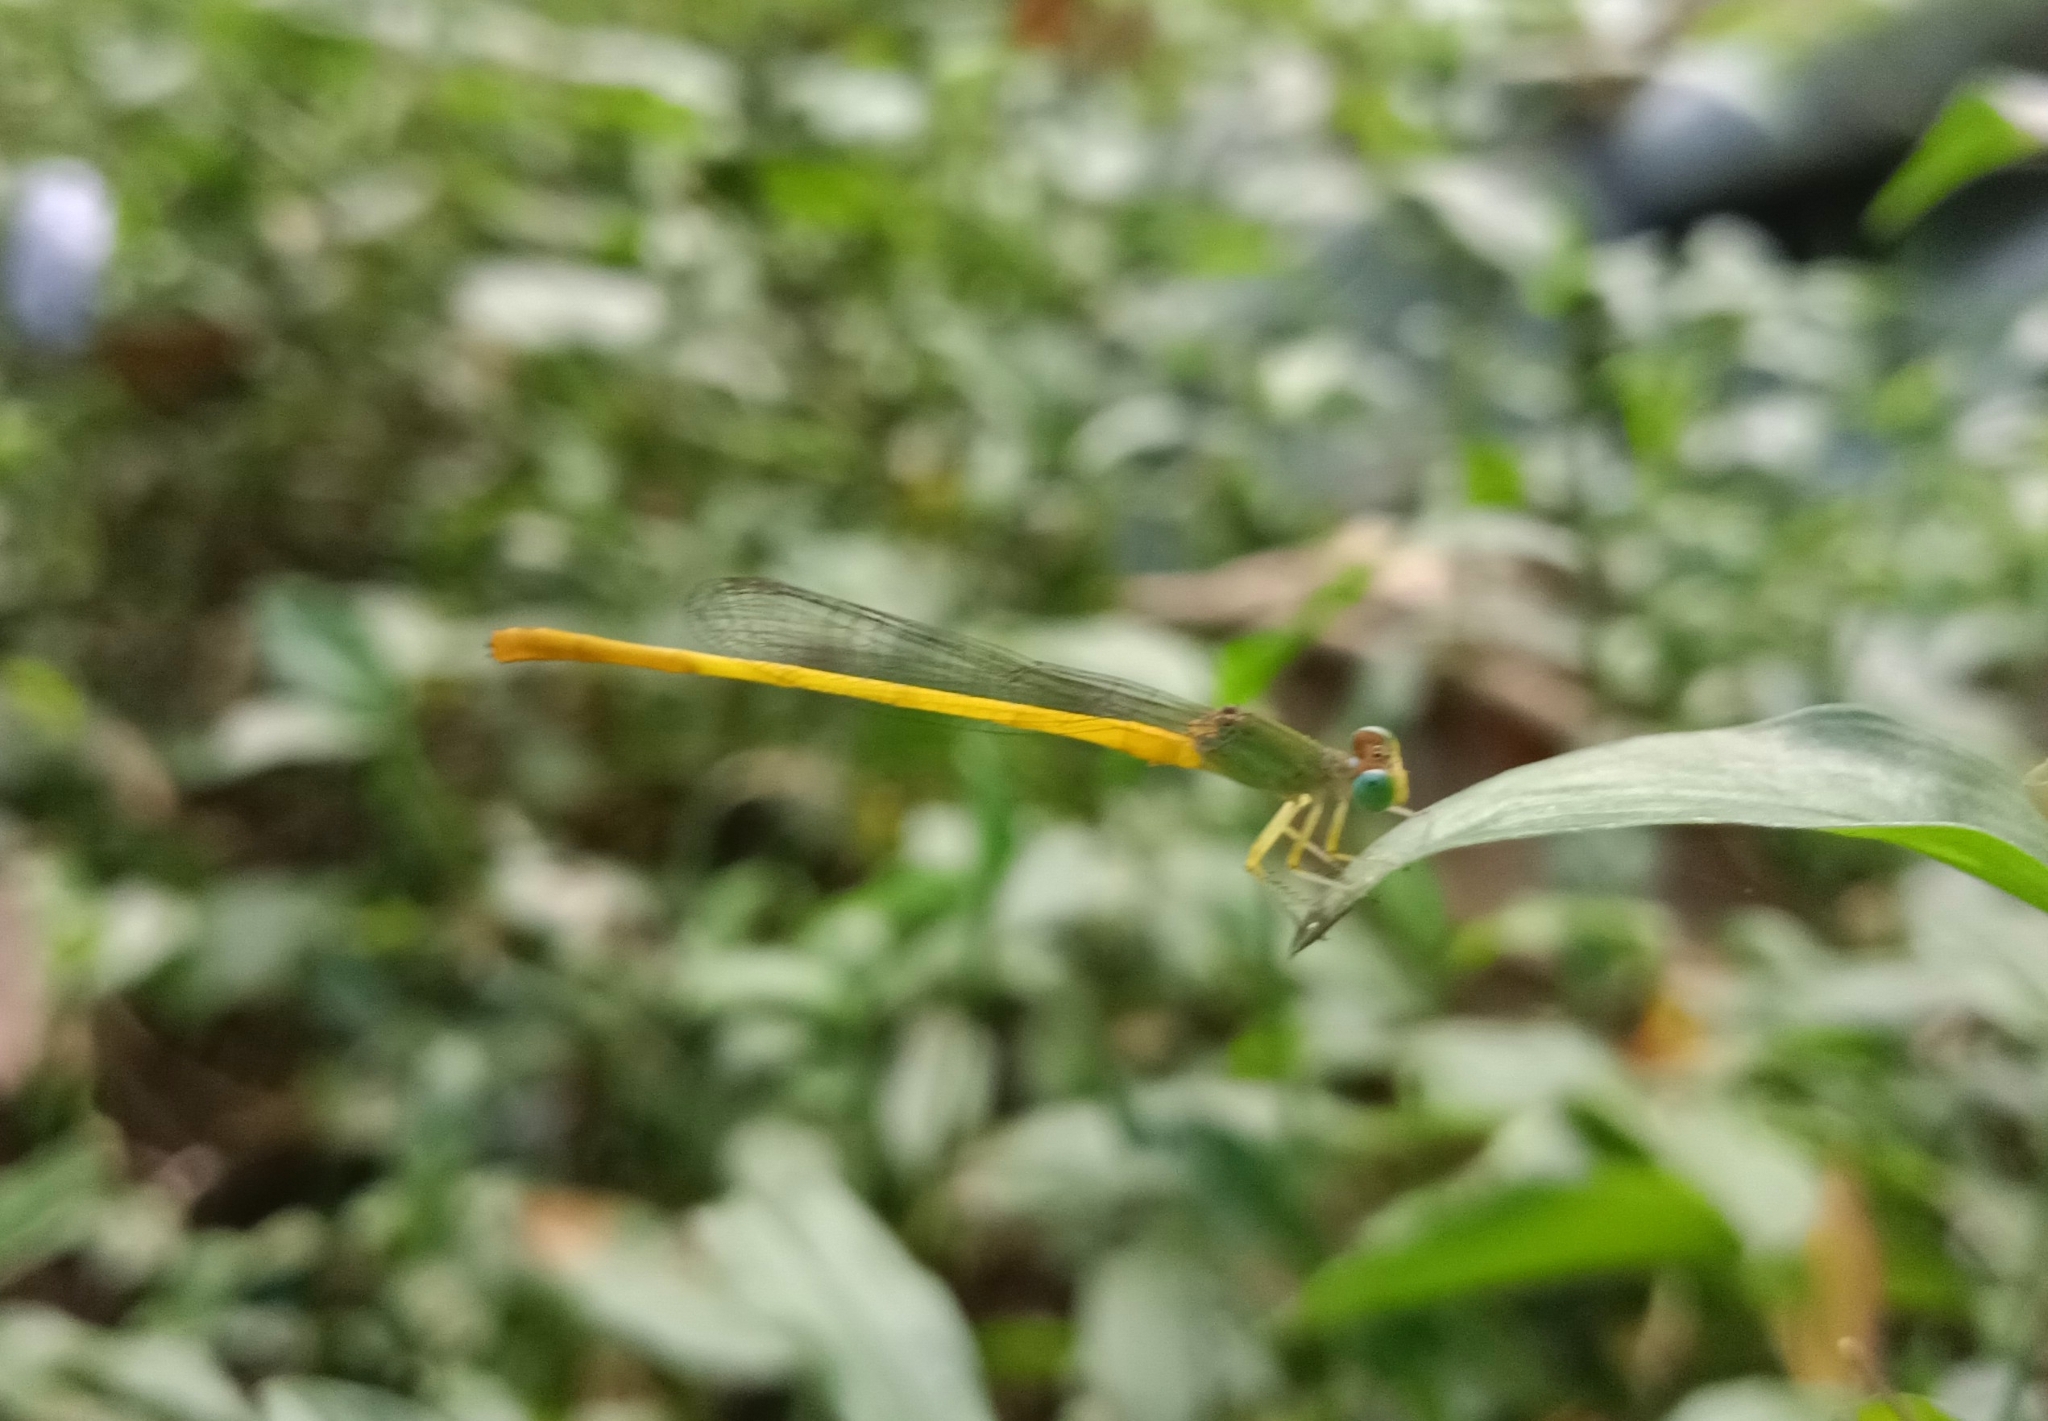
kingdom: Animalia
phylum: Arthropoda
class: Insecta
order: Odonata
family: Coenagrionidae
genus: Ceriagrion
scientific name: Ceriagrion coromandelianum
